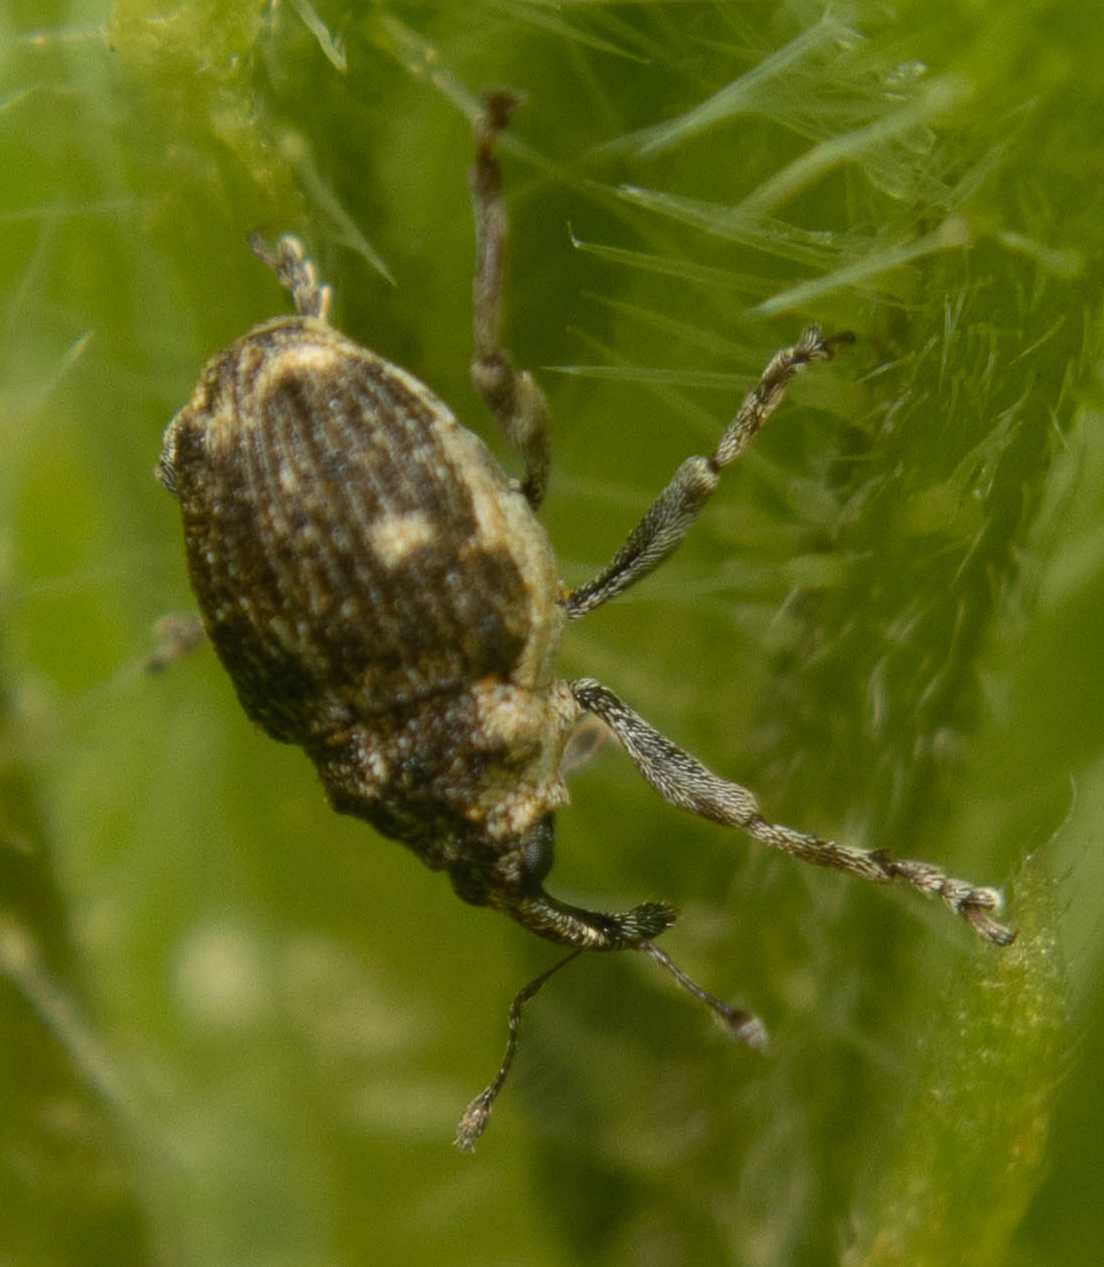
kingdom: Animalia
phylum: Arthropoda
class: Insecta
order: Coleoptera
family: Curculionidae
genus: Nedyus
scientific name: Nedyus quadrimaculatus
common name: Small nettle weevil
